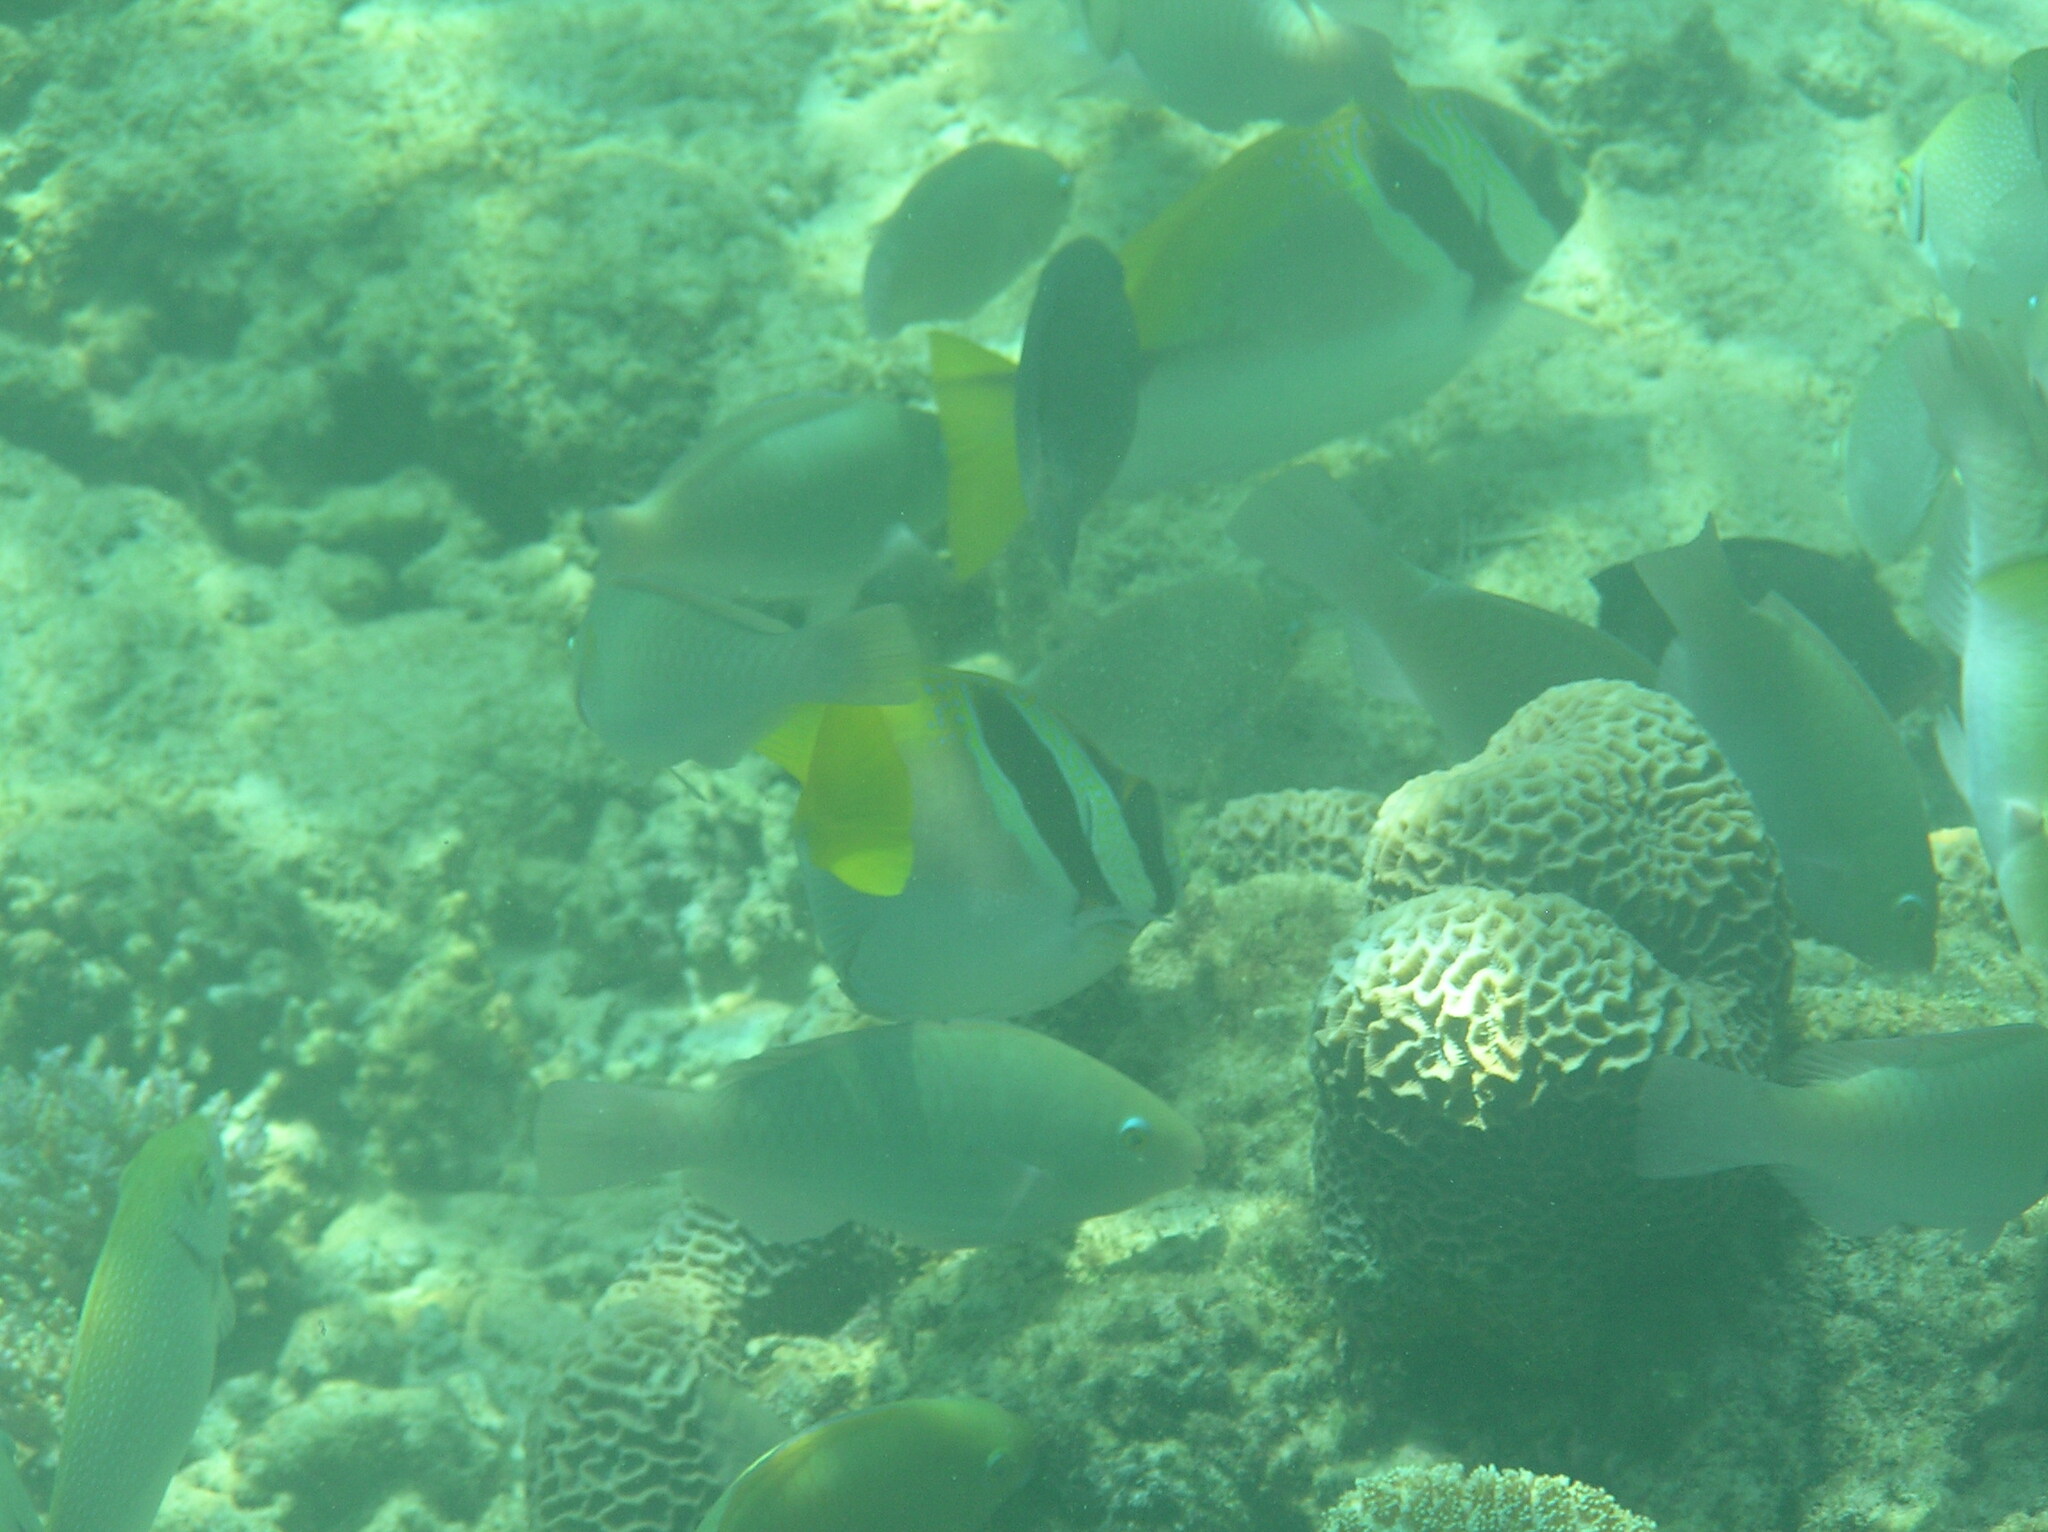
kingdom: Animalia
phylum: Chordata
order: Perciformes
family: Siganidae
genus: Siganus
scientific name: Siganus virgatus
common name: Barhead spinefoot
